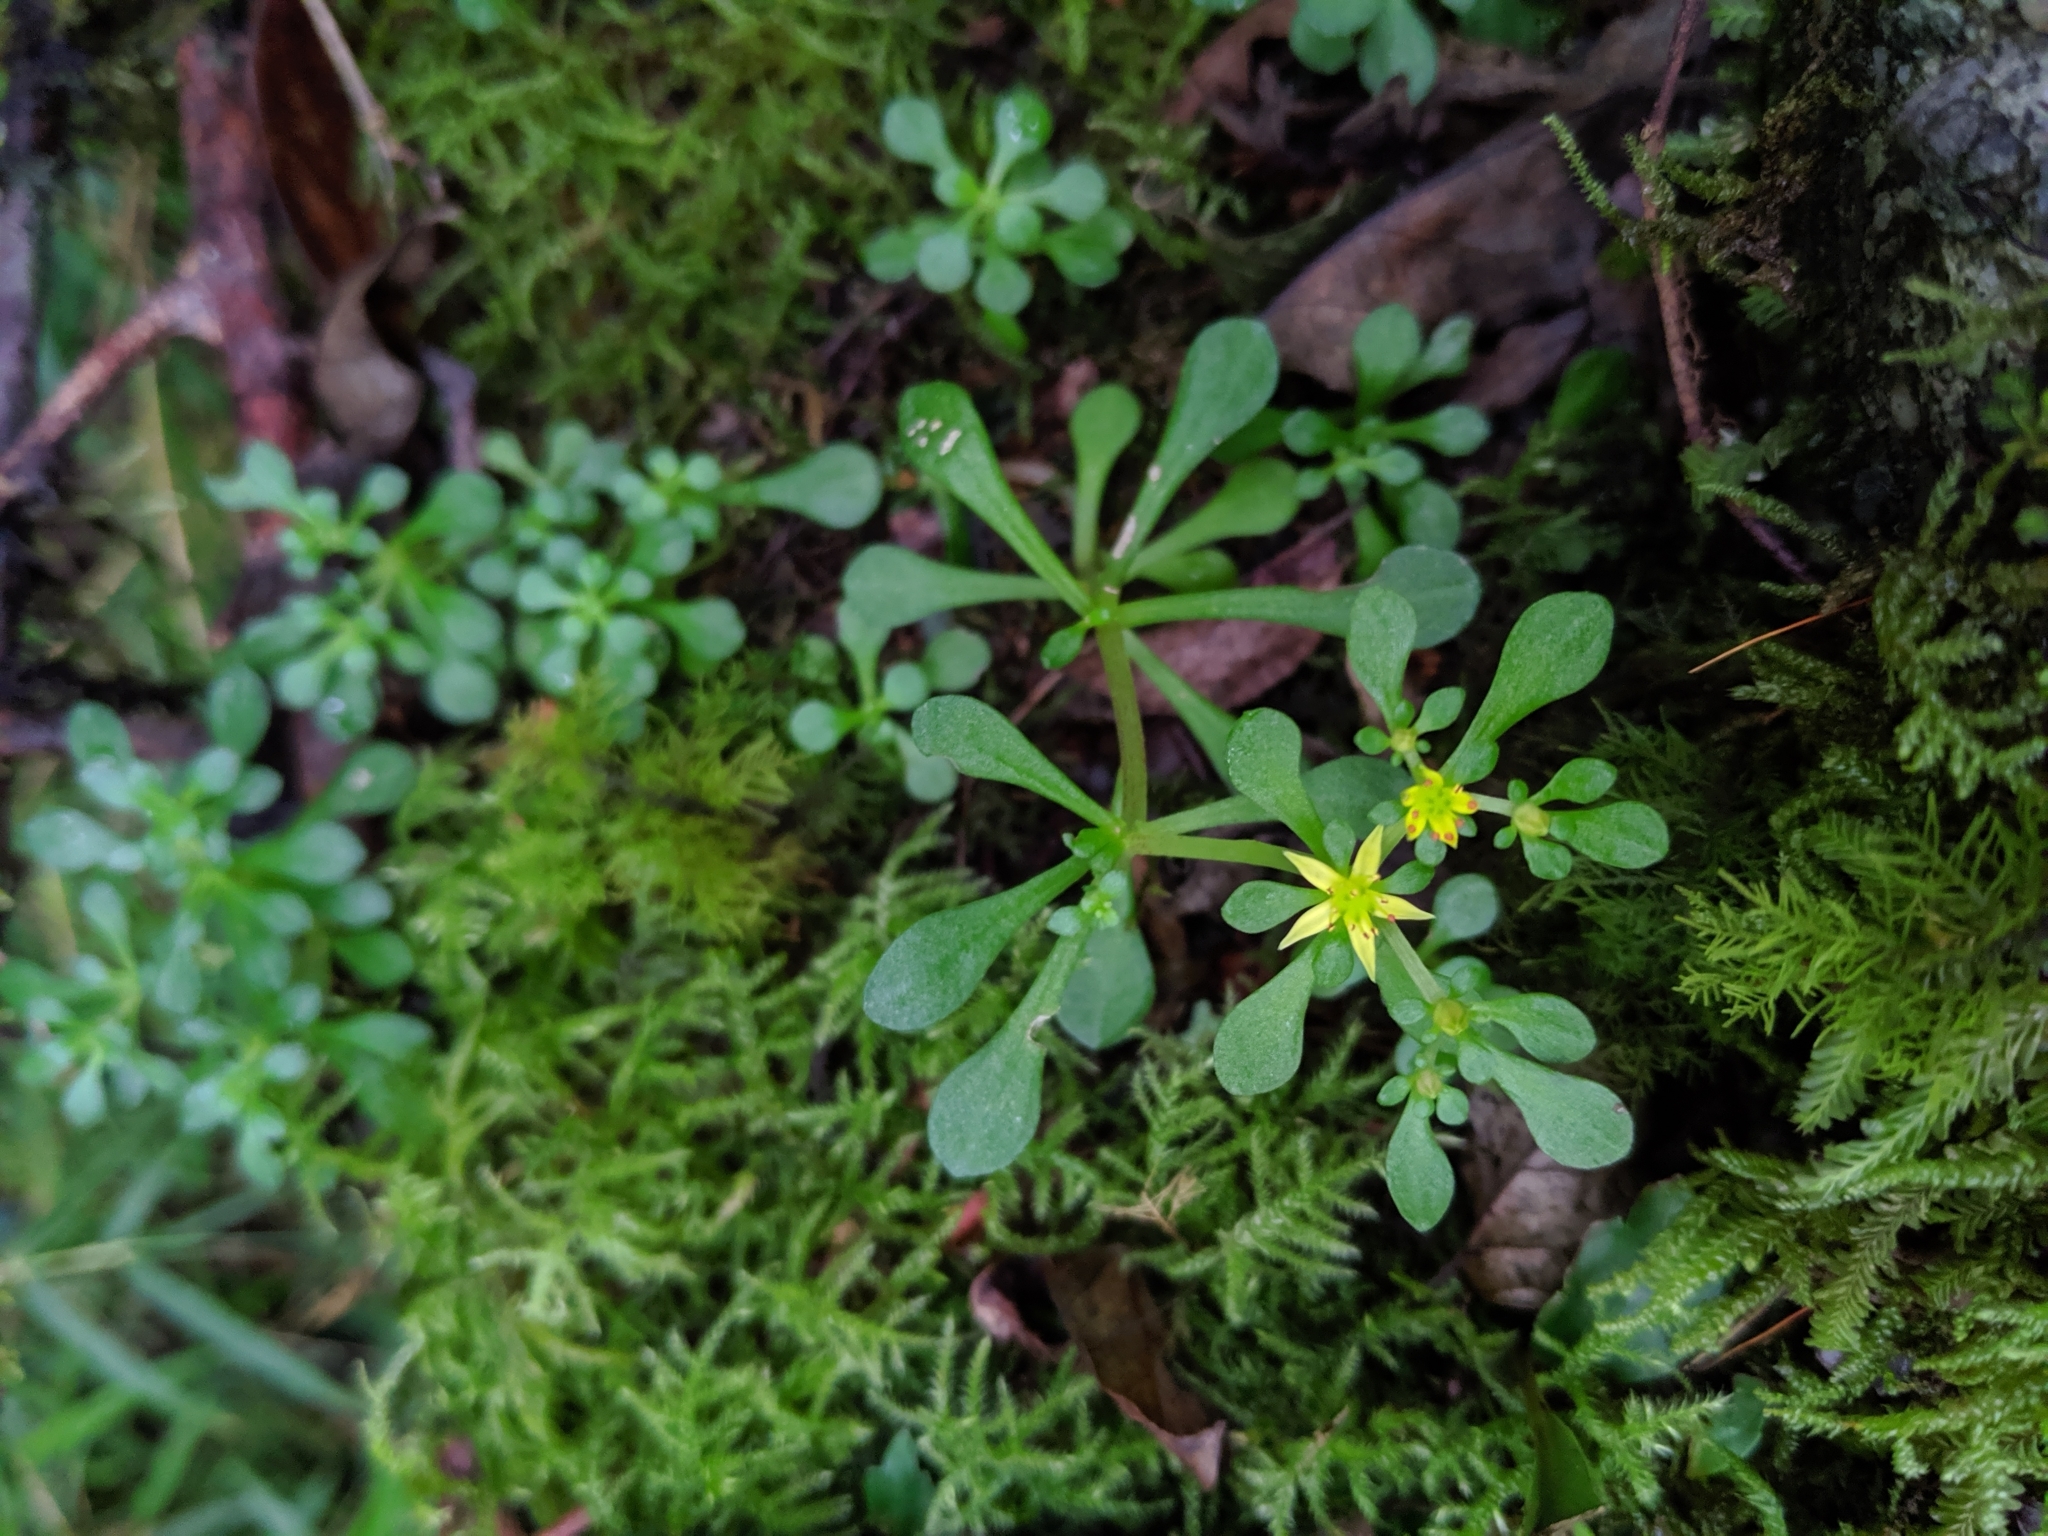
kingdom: Plantae
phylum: Tracheophyta
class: Magnoliopsida
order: Saxifragales
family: Crassulaceae
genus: Sedum
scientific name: Sedum actinocarpum
